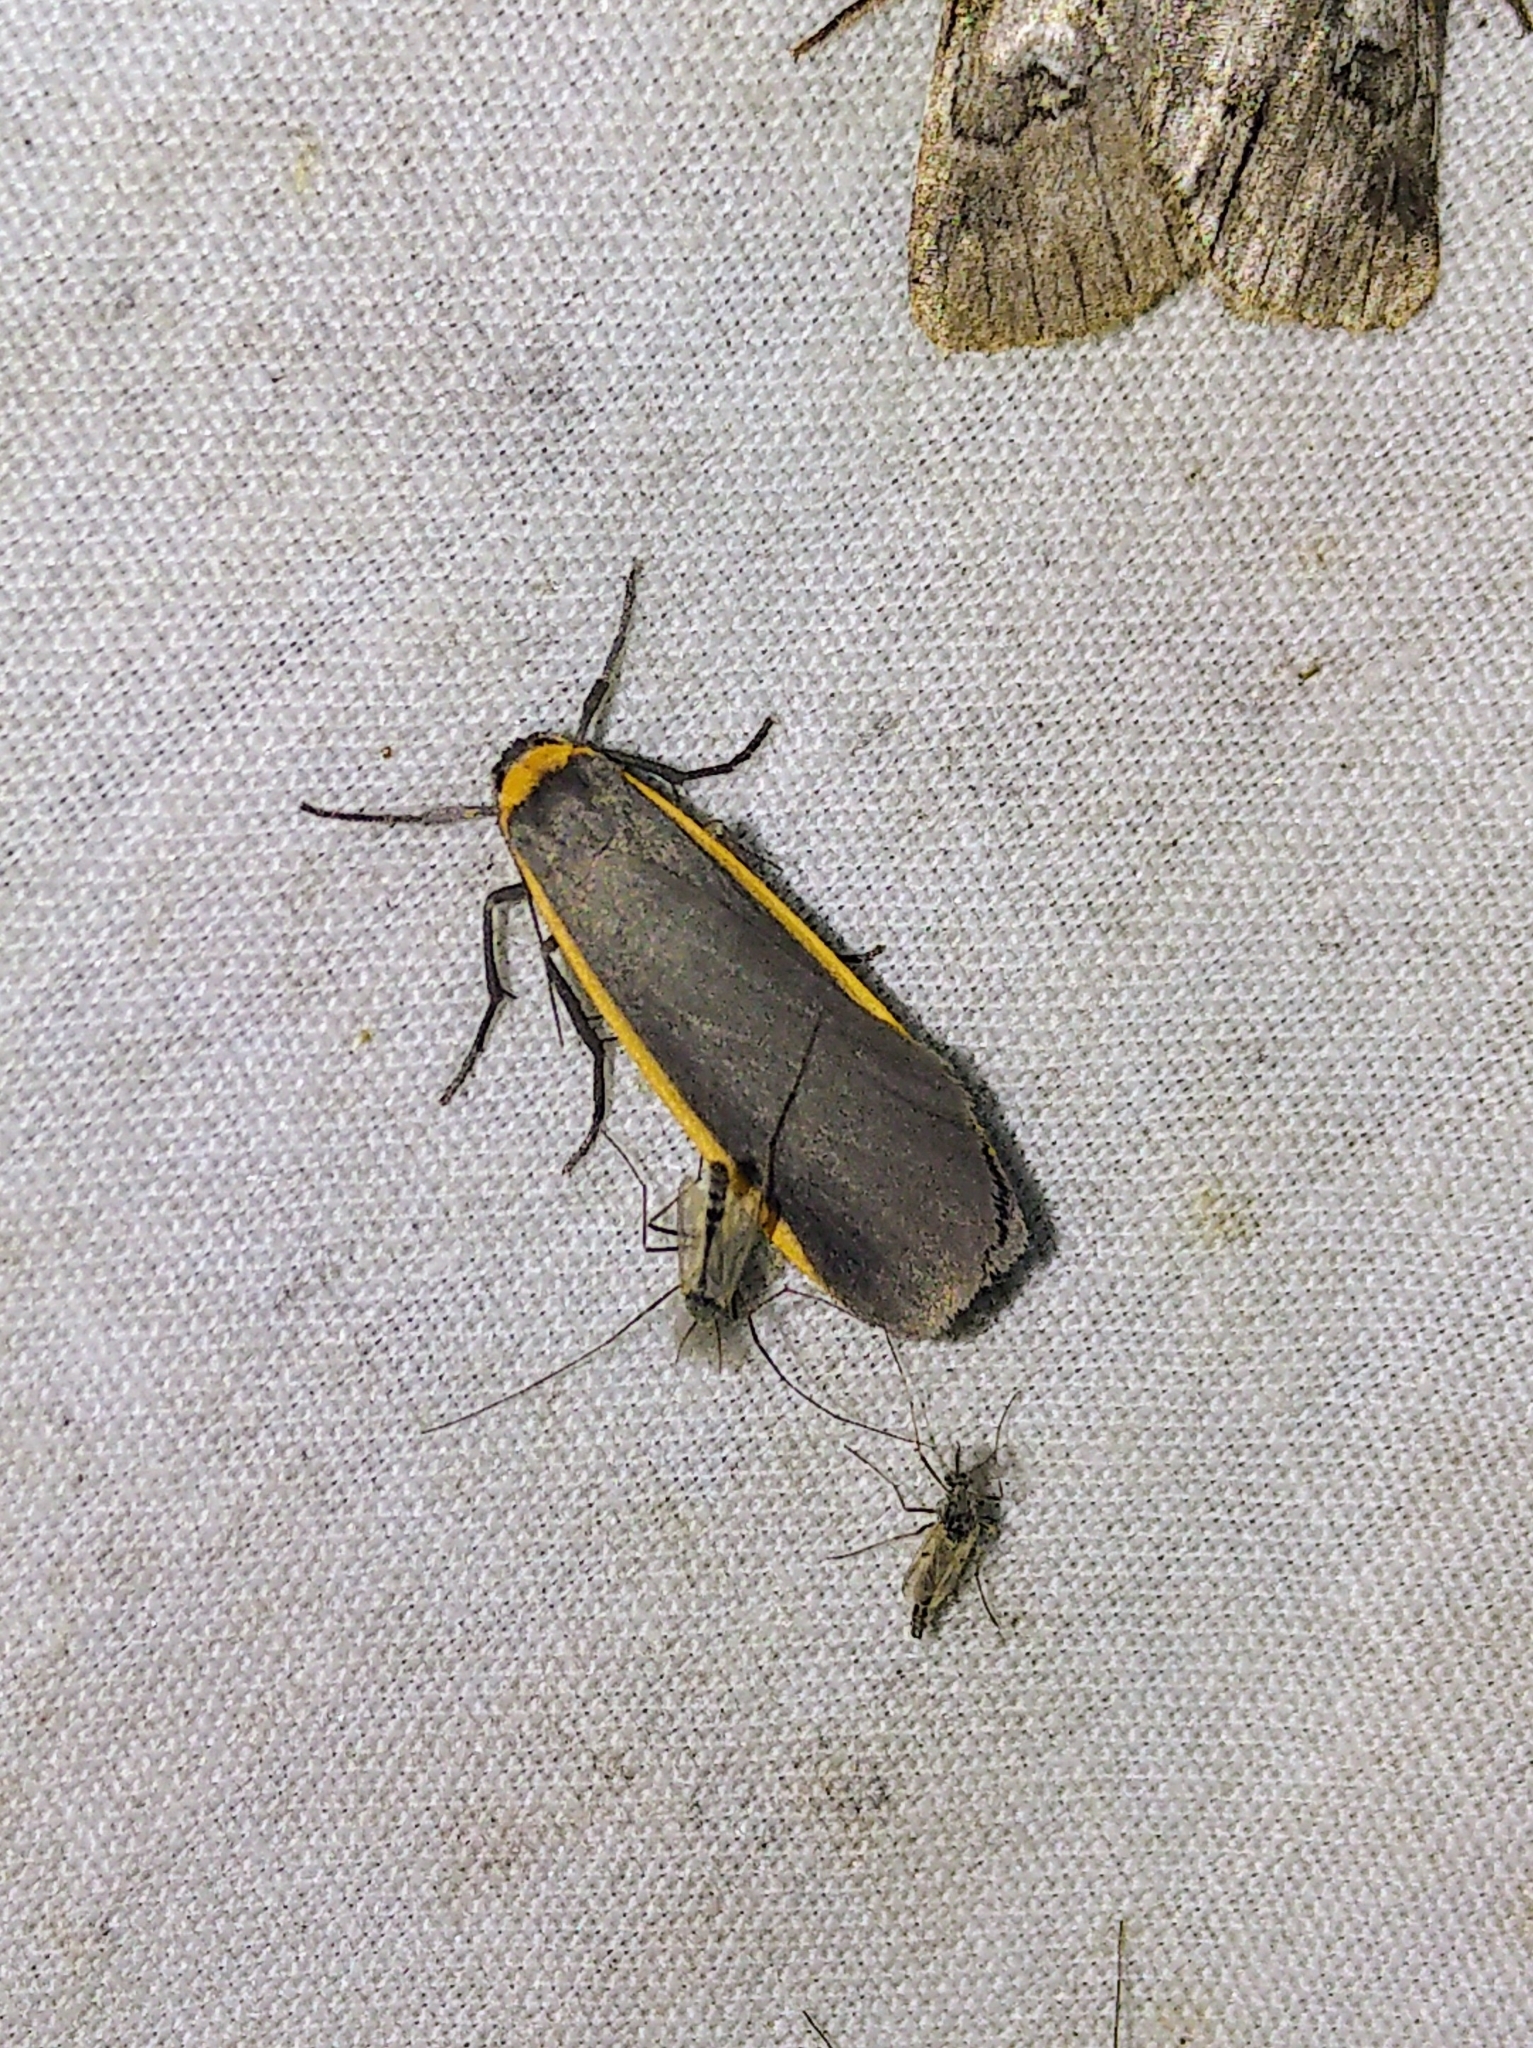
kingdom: Animalia
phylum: Arthropoda
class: Insecta
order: Lepidoptera
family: Erebidae
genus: Manulea
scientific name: Manulea bicolor
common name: Bicolored moth
